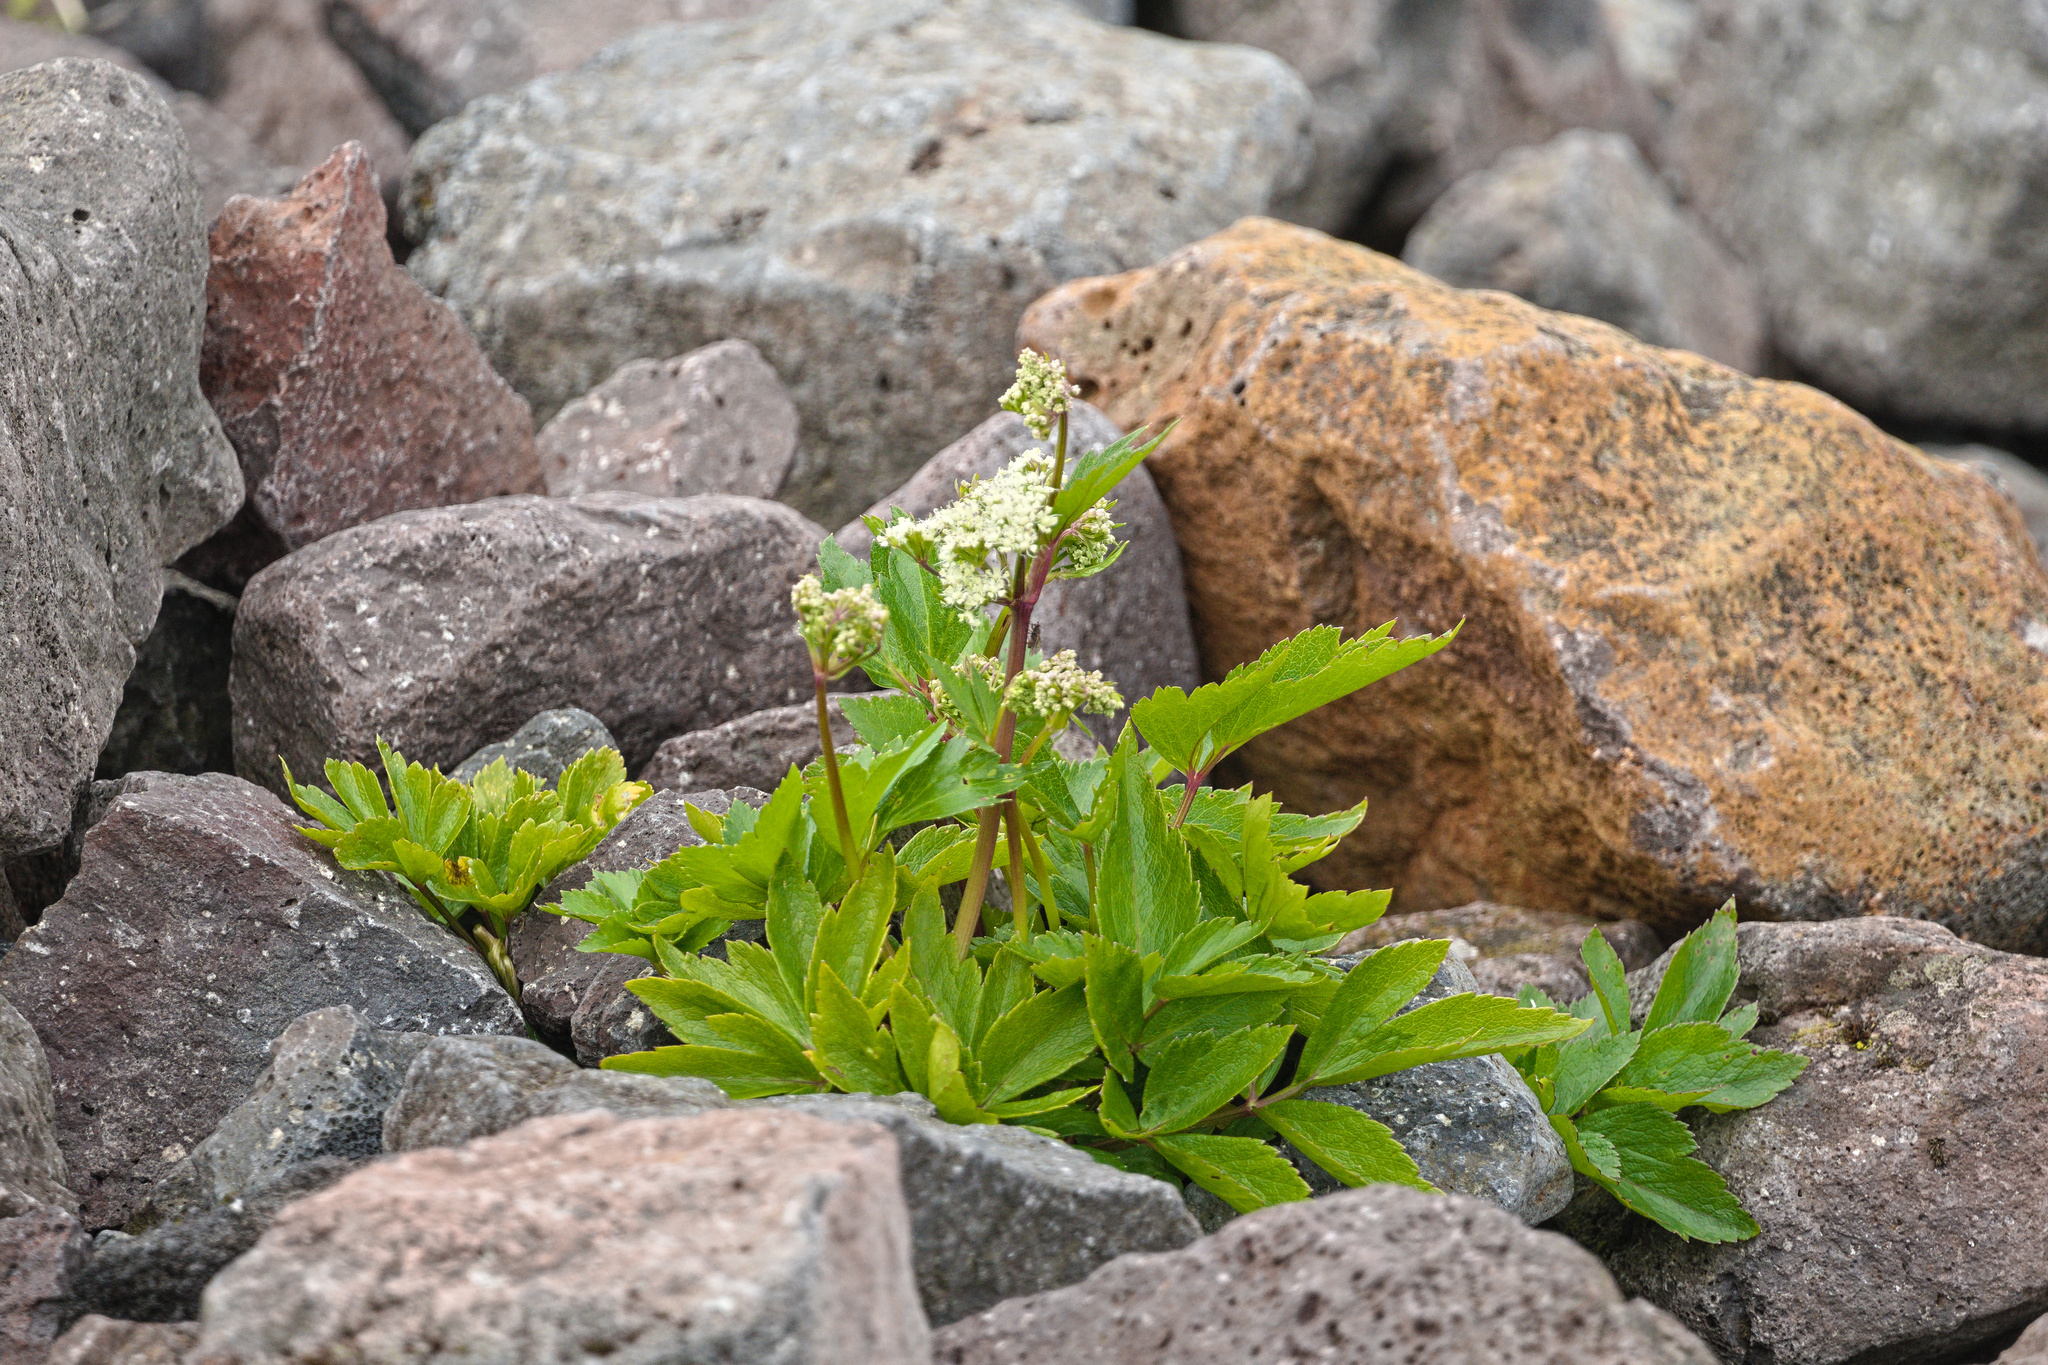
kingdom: Plantae
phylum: Tracheophyta
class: Magnoliopsida
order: Apiales
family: Apiaceae
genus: Ligusticum
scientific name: Ligusticum scothicum
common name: Beach lovage
